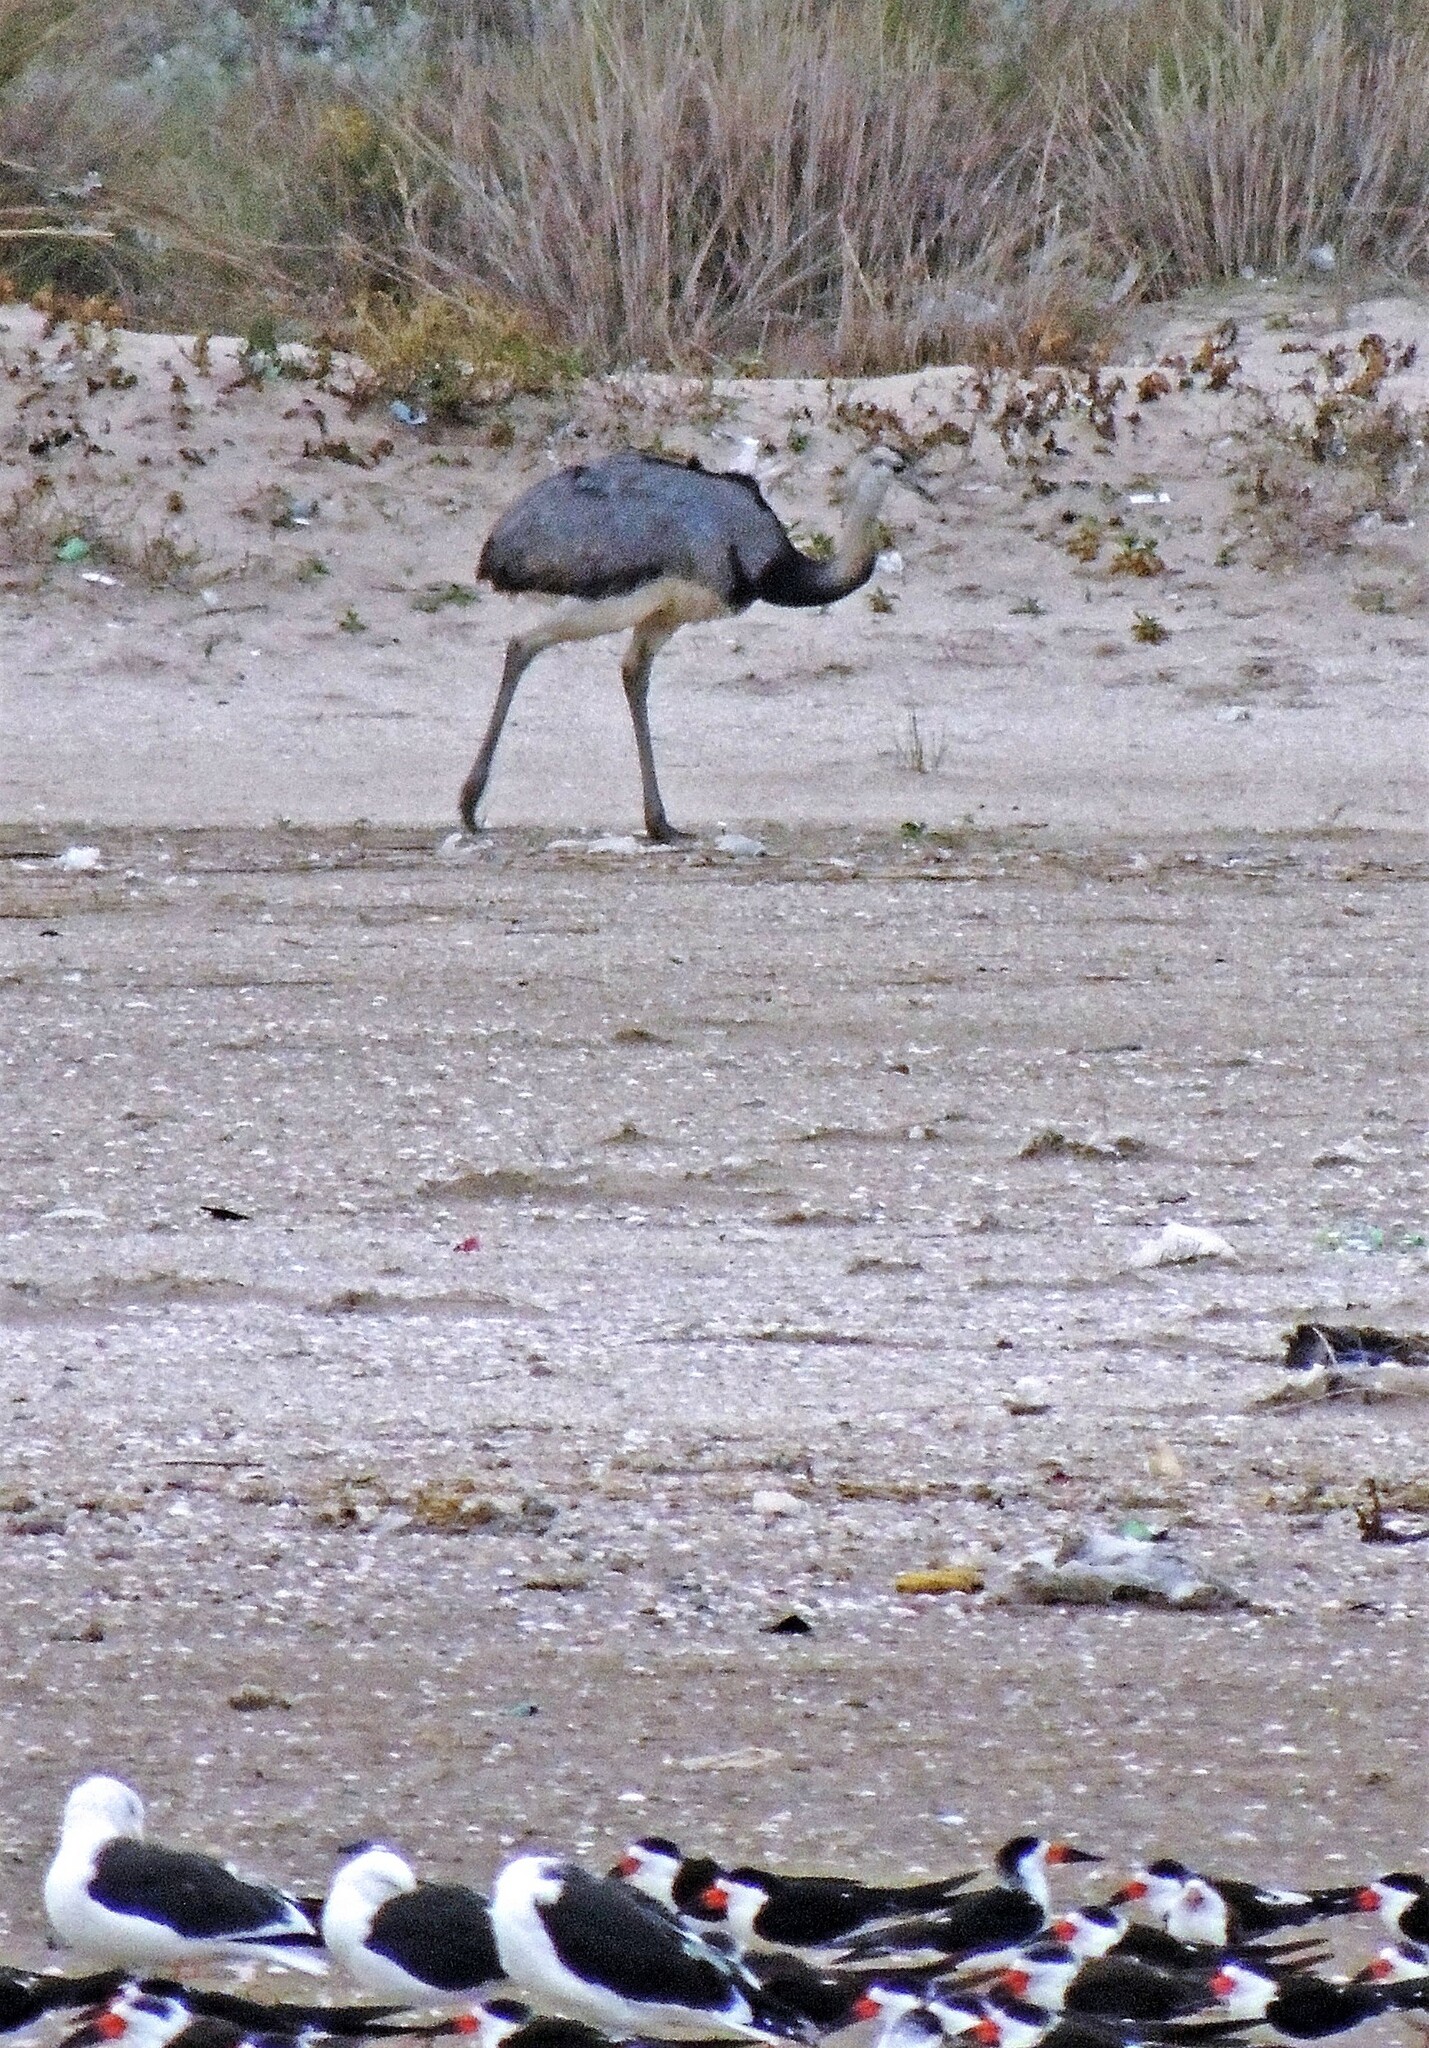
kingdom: Animalia
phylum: Chordata
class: Aves
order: Rheiformes
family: Rheidae
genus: Rhea
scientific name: Rhea americana
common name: Greater rhea
